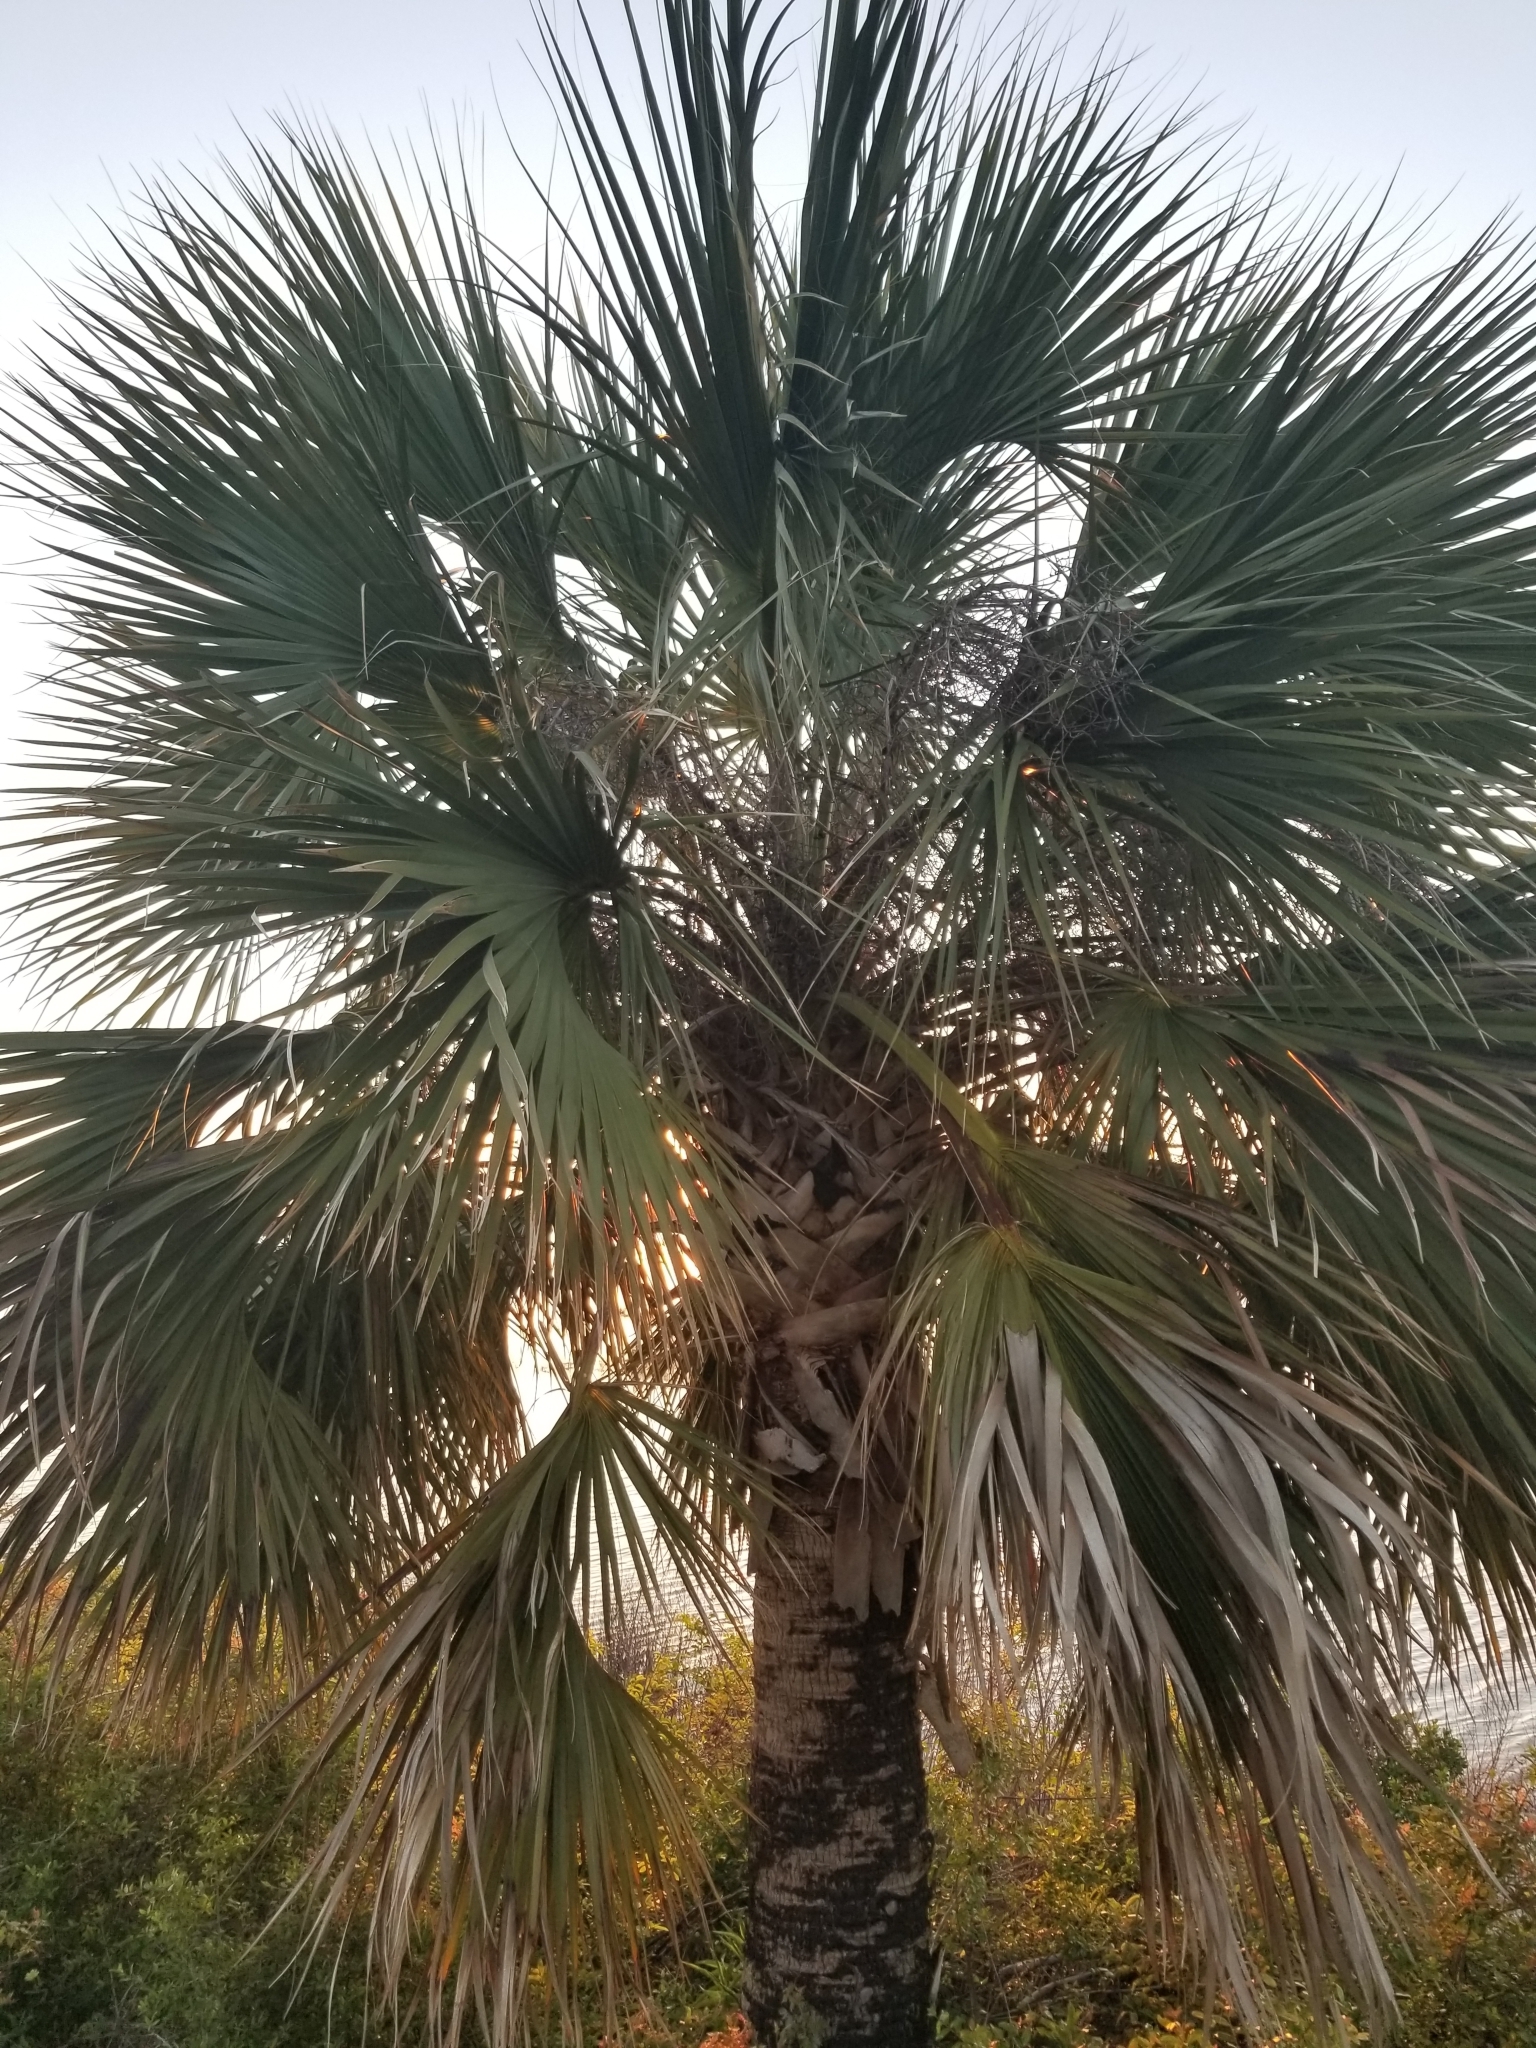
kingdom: Plantae
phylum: Tracheophyta
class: Liliopsida
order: Arecales
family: Arecaceae
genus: Sabal
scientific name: Sabal palmetto
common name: Blue palmetto
